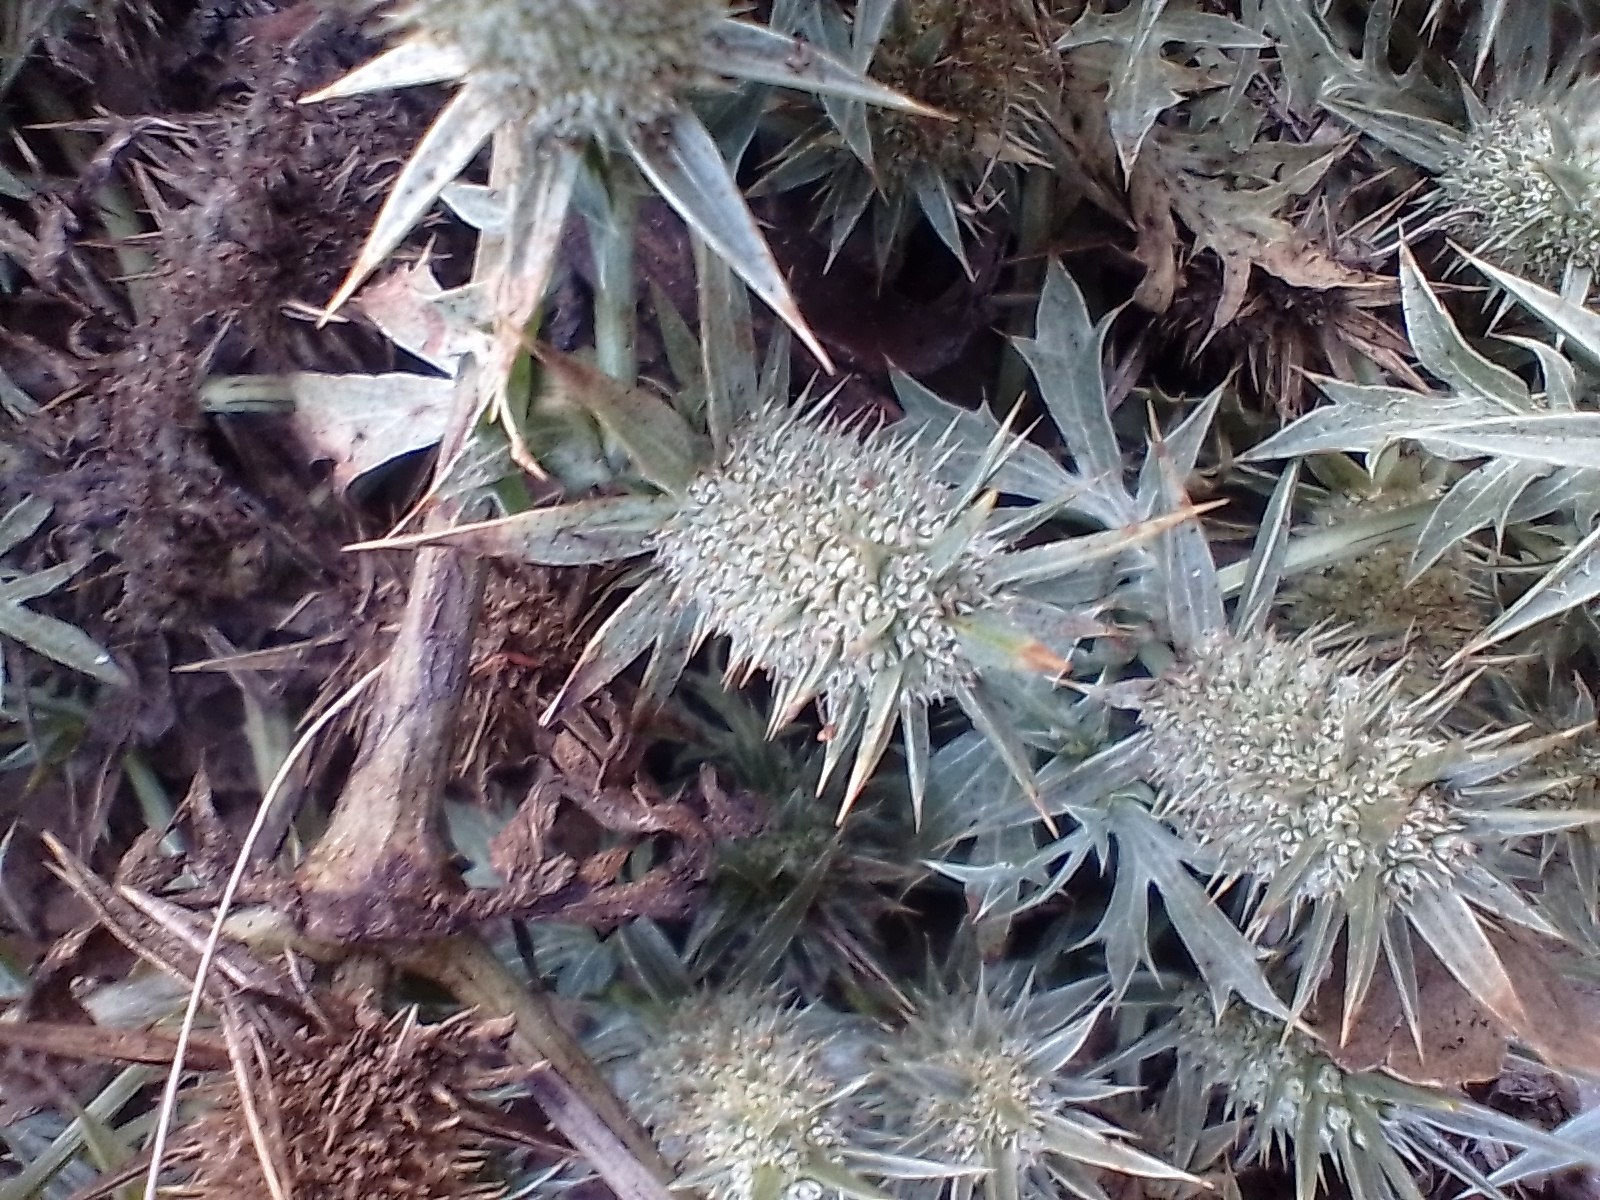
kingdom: Plantae
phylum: Tracheophyta
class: Magnoliopsida
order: Apiales
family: Apiaceae
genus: Eryngium
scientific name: Eryngium nasturtiifolium
